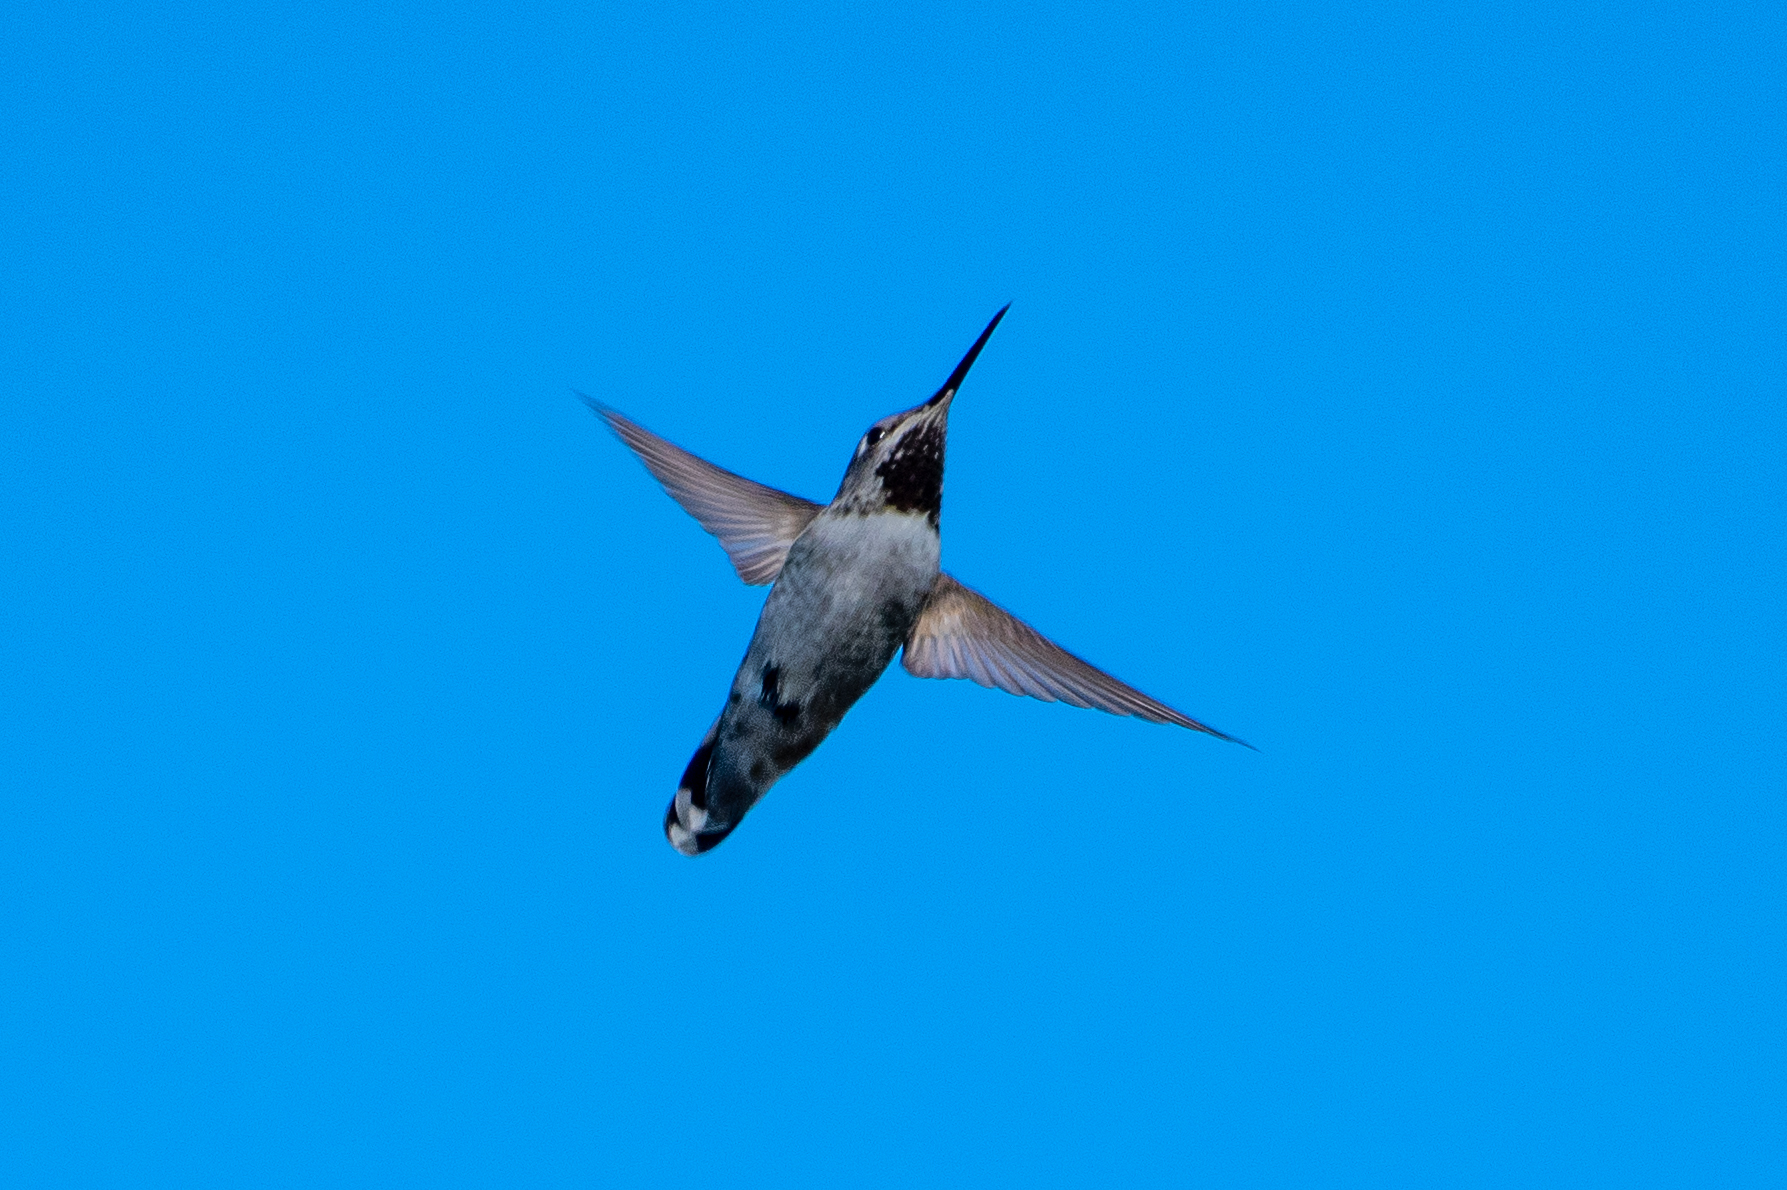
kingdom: Animalia
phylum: Chordata
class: Aves
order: Apodiformes
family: Trochilidae
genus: Calypte
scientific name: Calypte anna
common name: Anna's hummingbird
